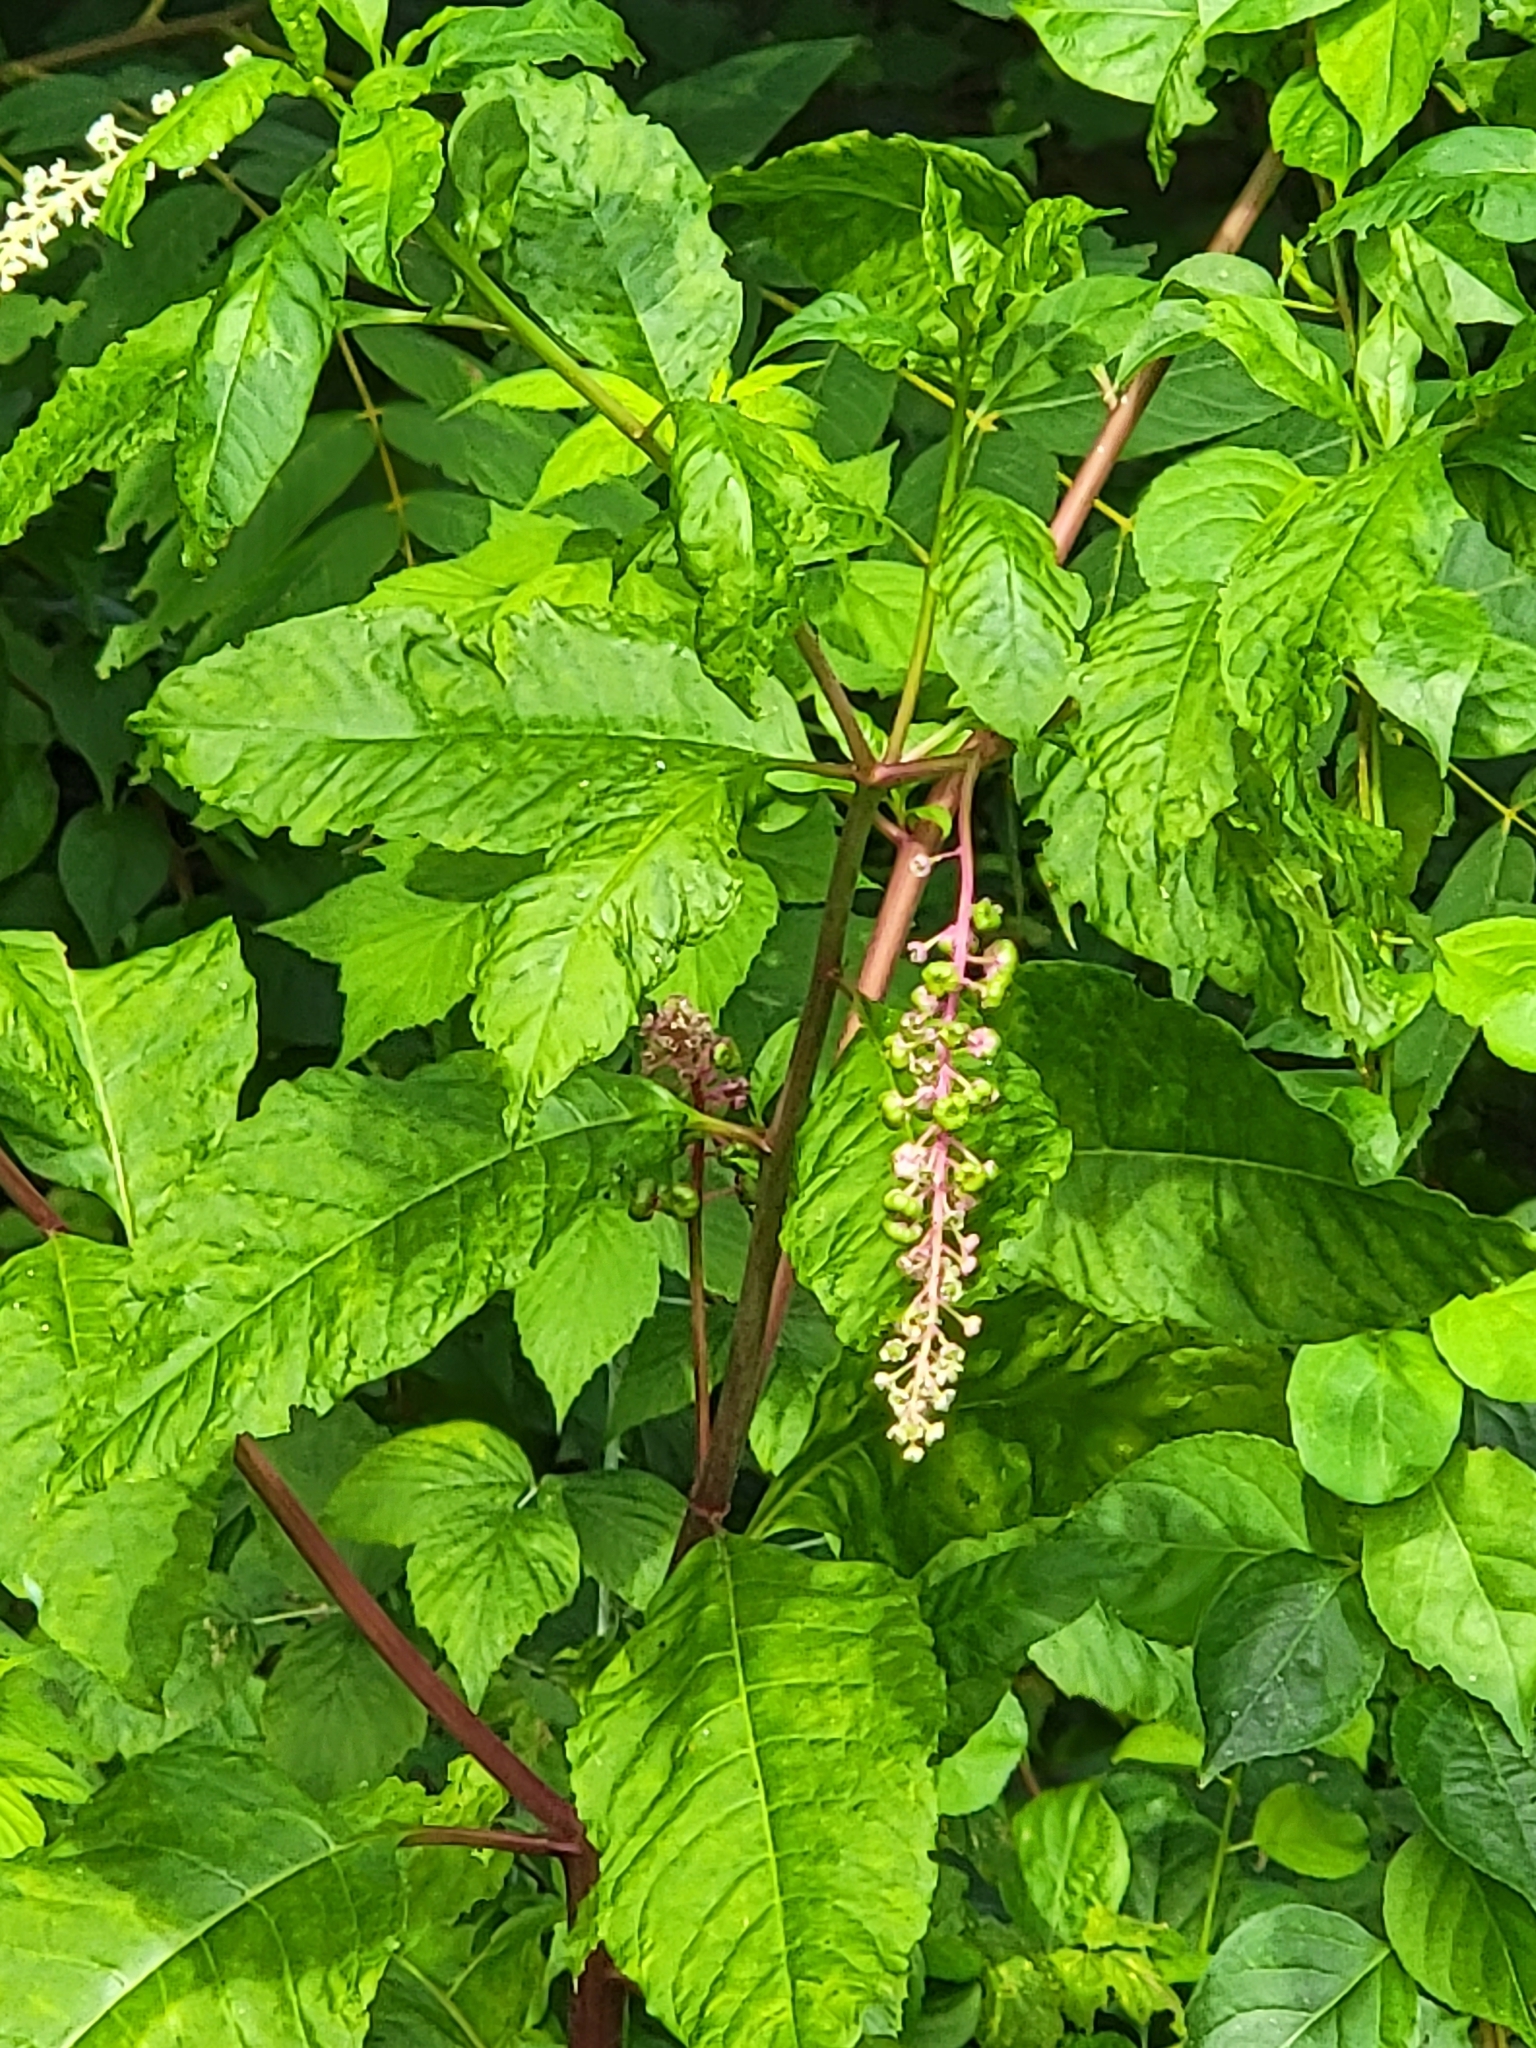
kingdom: Plantae
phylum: Tracheophyta
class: Magnoliopsida
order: Caryophyllales
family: Phytolaccaceae
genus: Phytolacca
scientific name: Phytolacca americana
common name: American pokeweed
